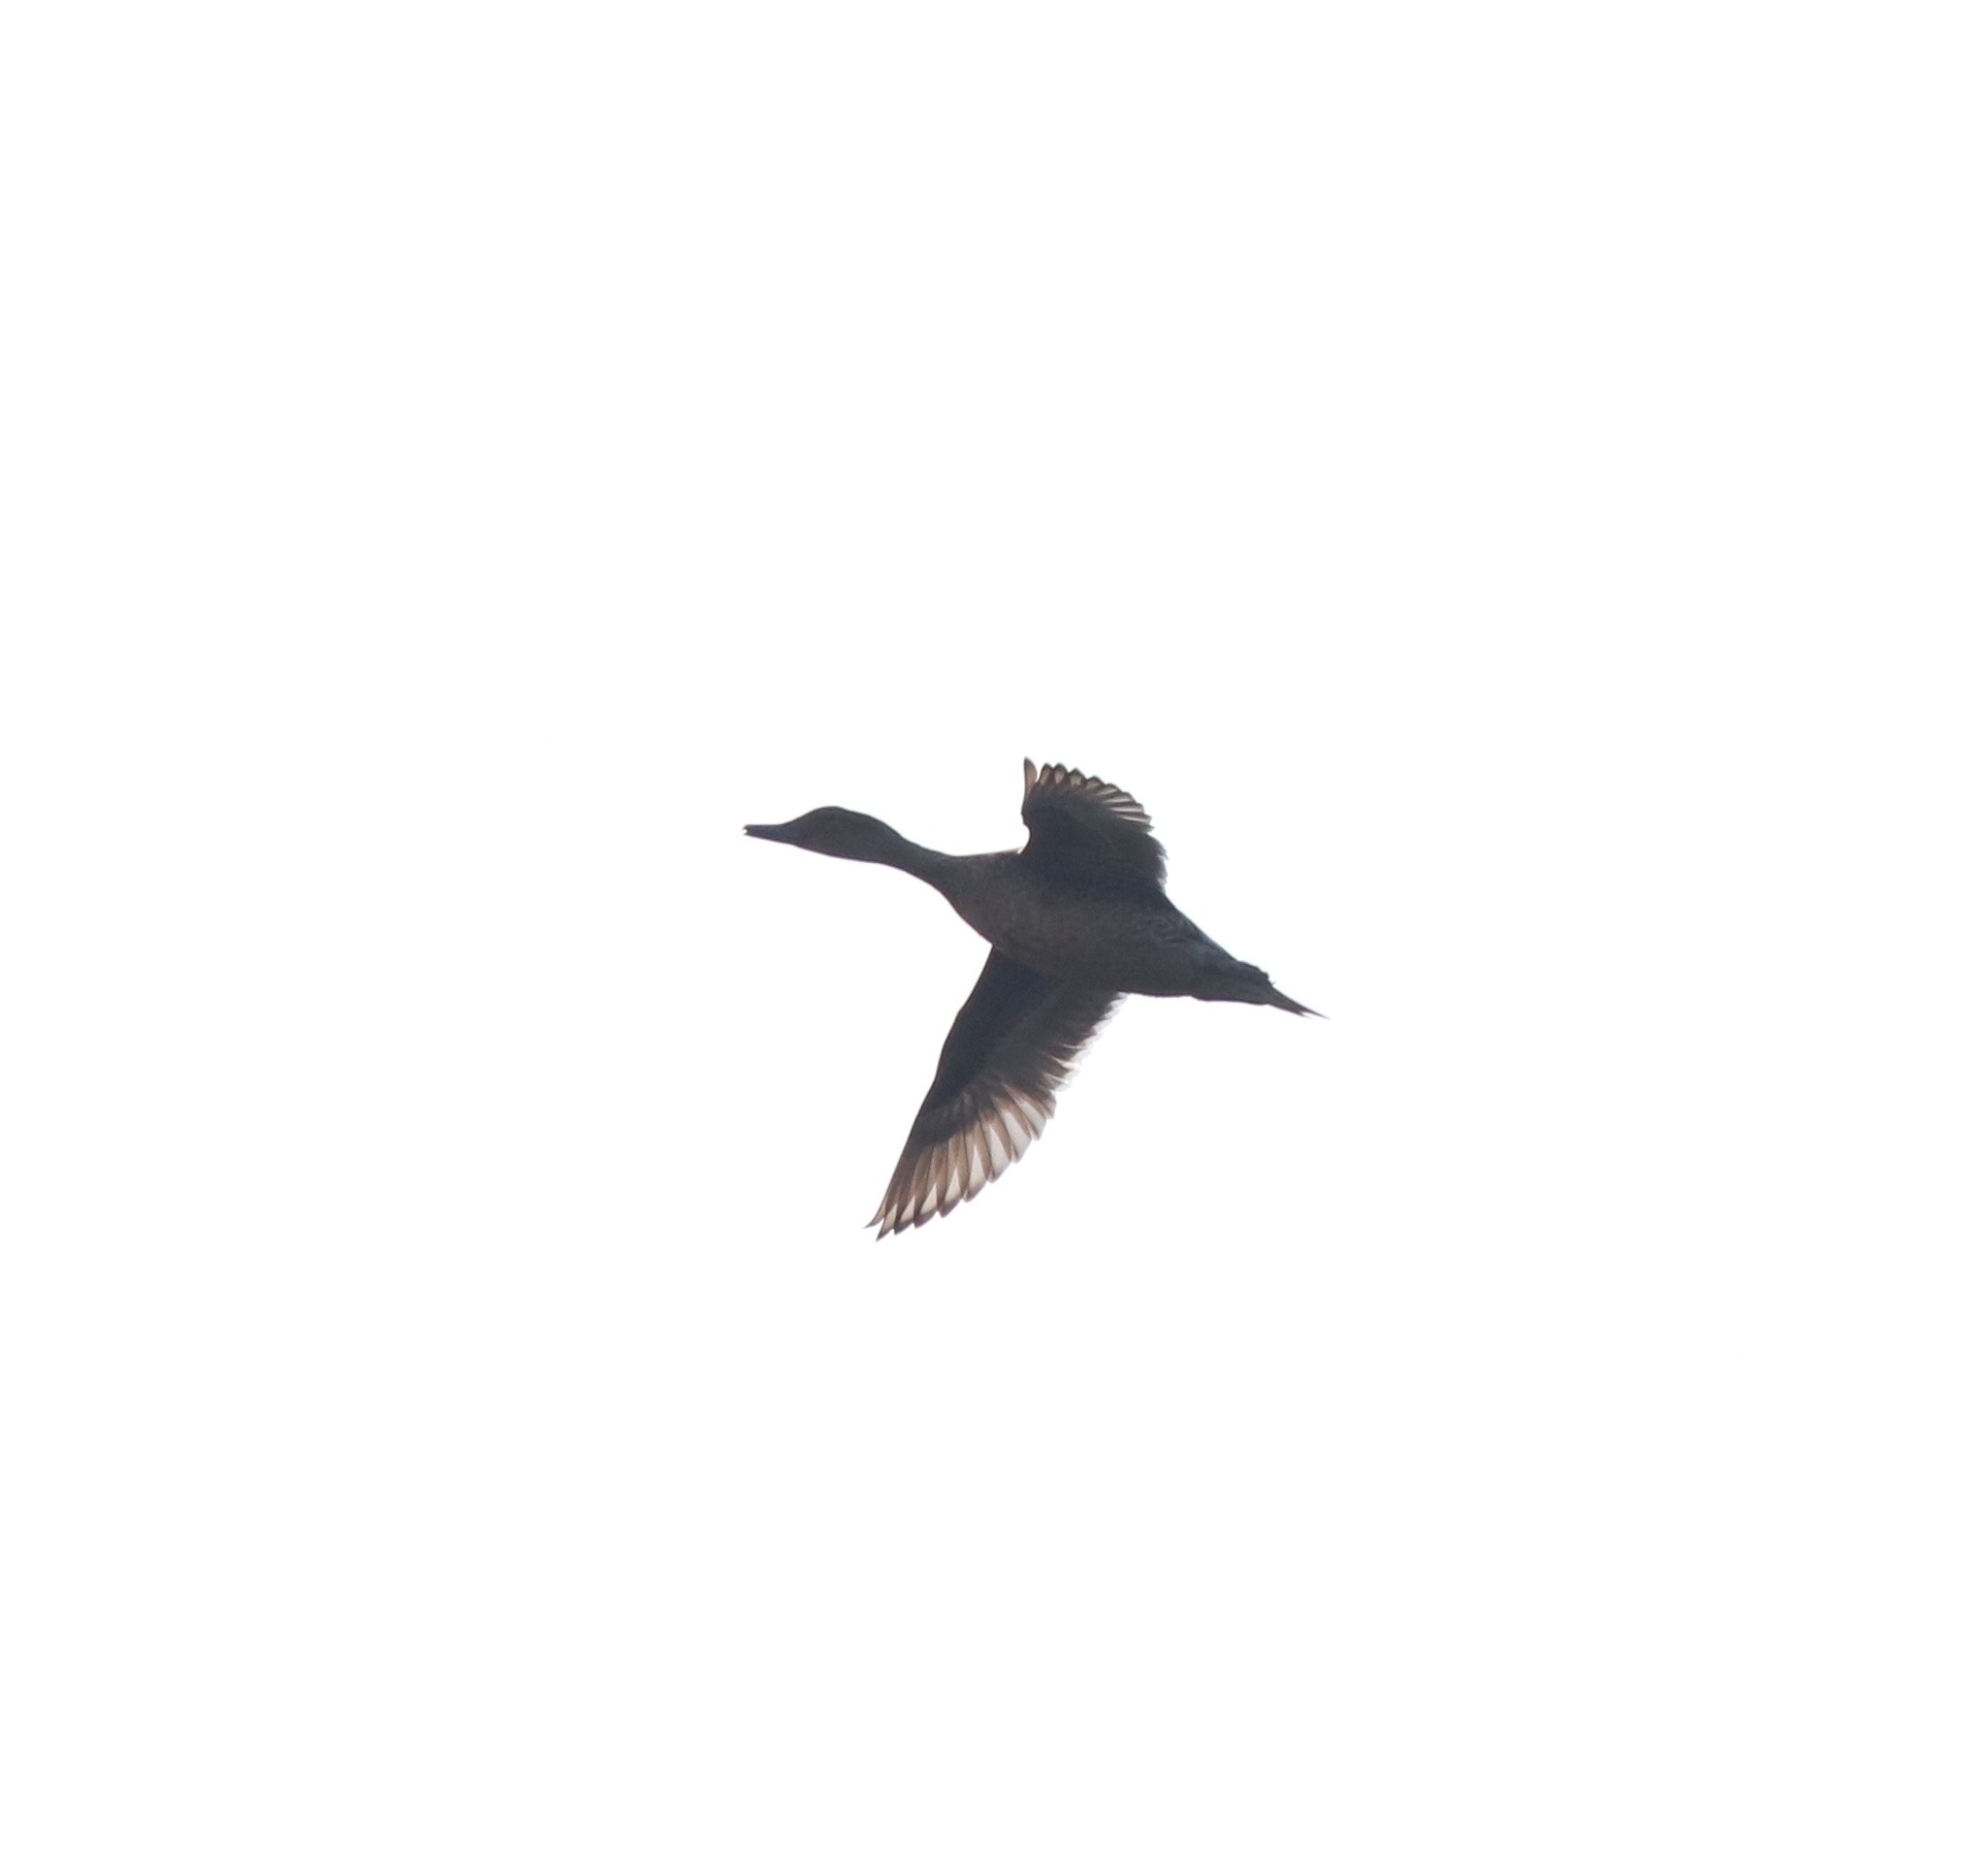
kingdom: Animalia
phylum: Chordata
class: Aves
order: Anseriformes
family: Anatidae
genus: Anas
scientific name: Anas acuta
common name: Northern pintail
